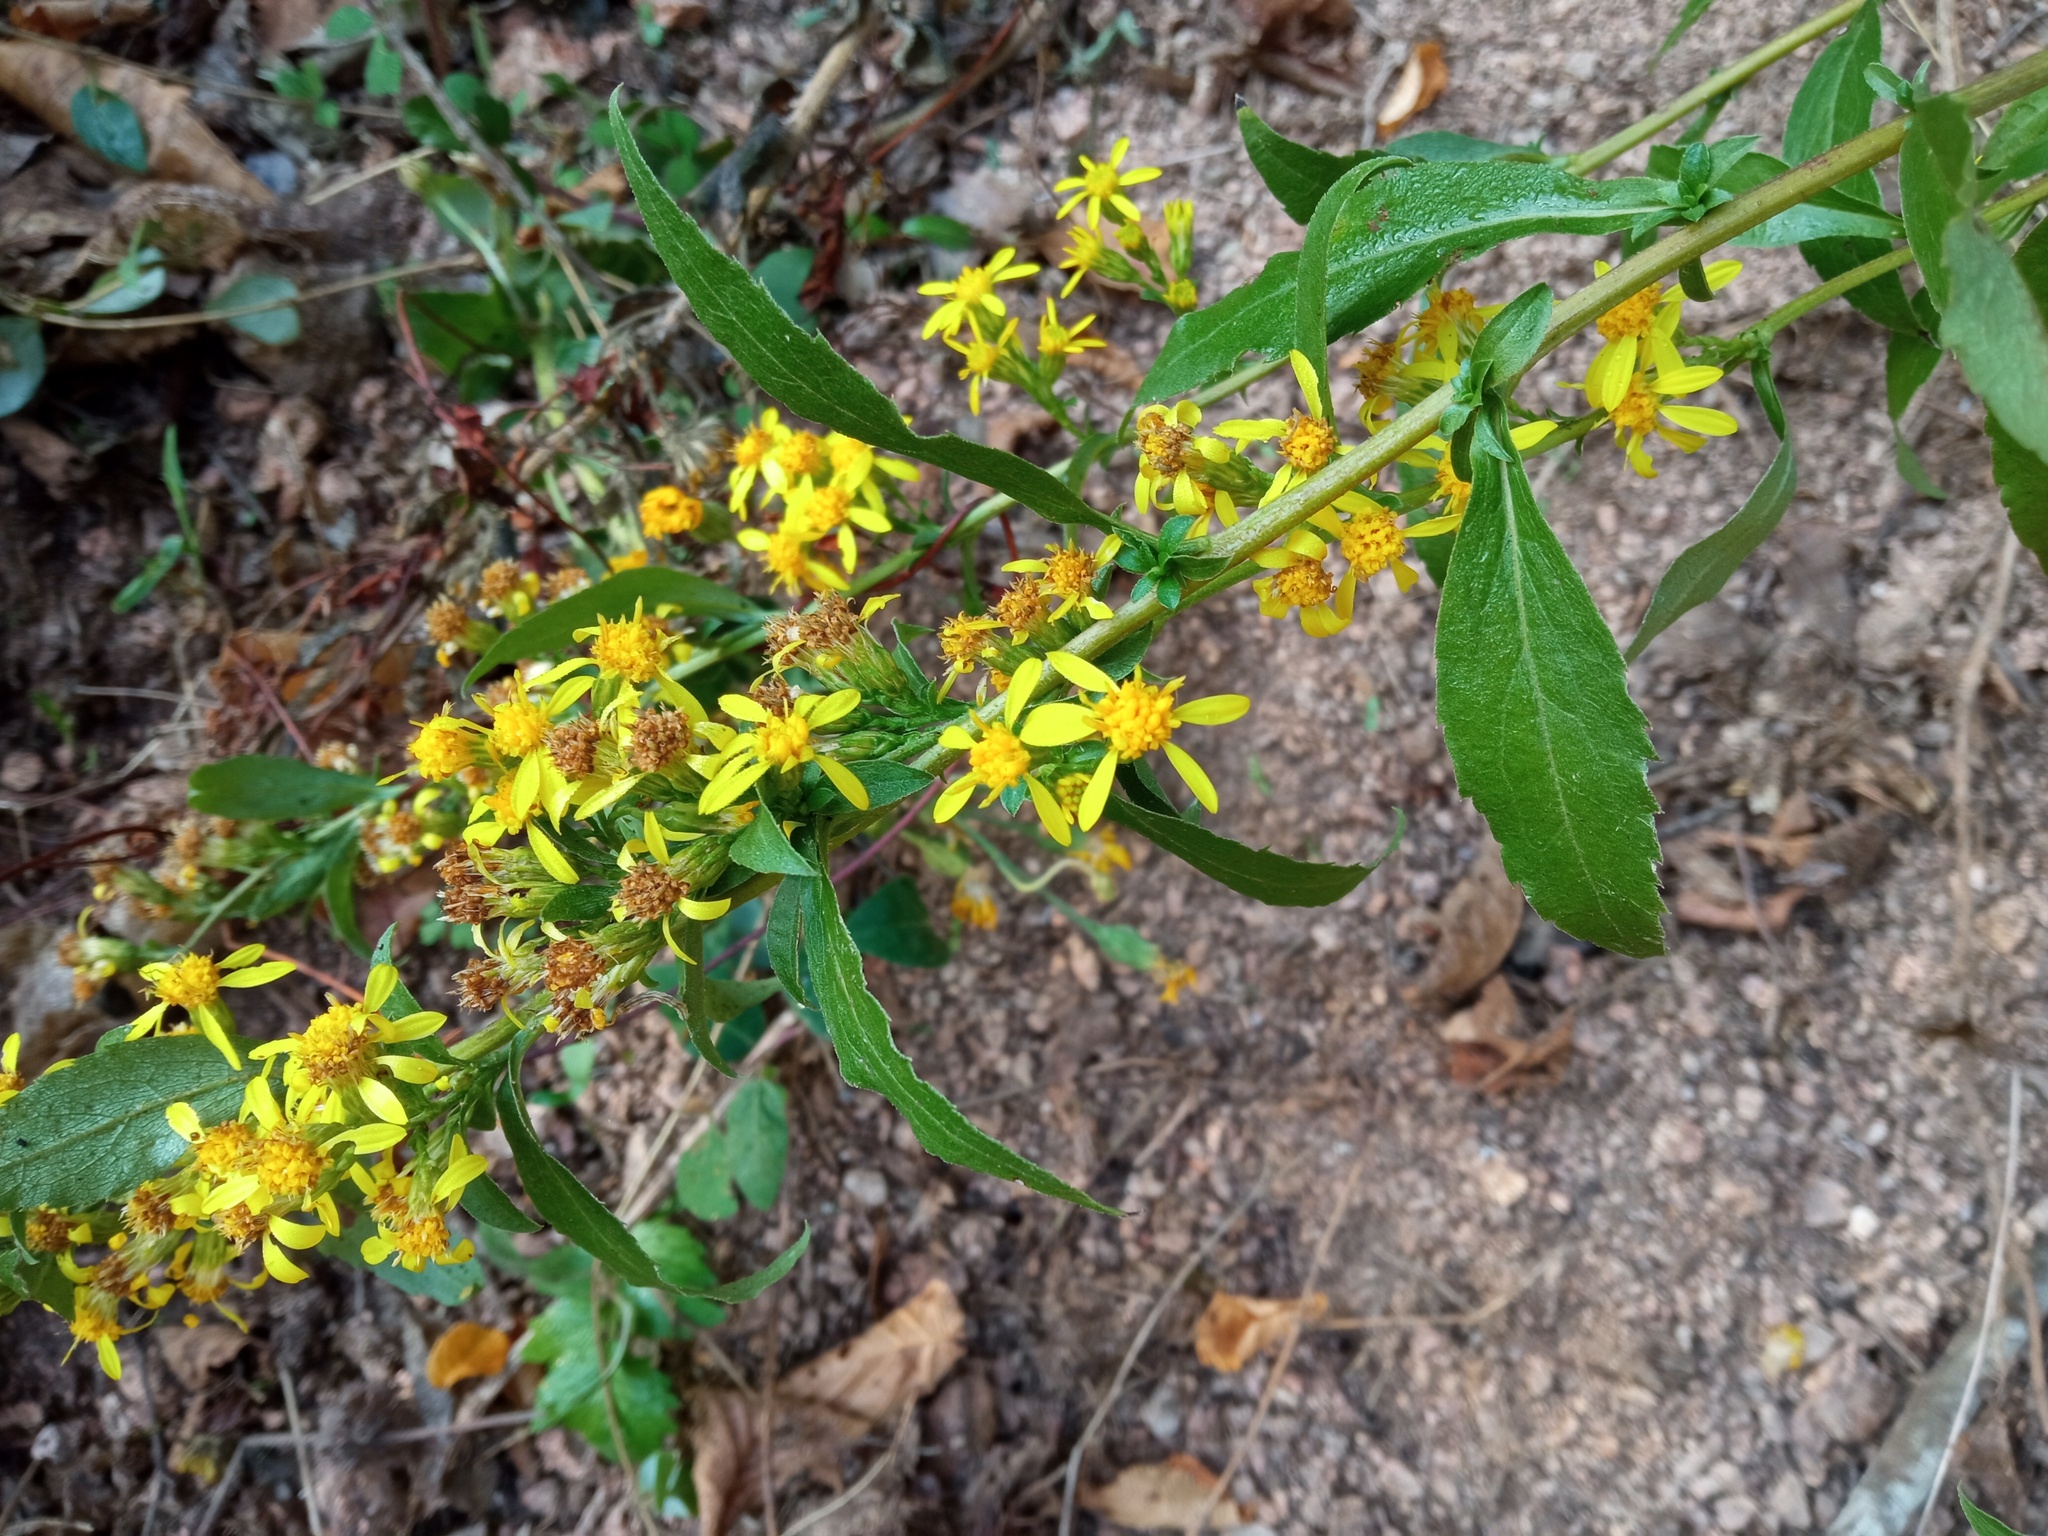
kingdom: Plantae
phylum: Tracheophyta
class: Magnoliopsida
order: Asterales
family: Asteraceae
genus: Solidago
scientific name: Solidago virgaurea
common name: Goldenrod
